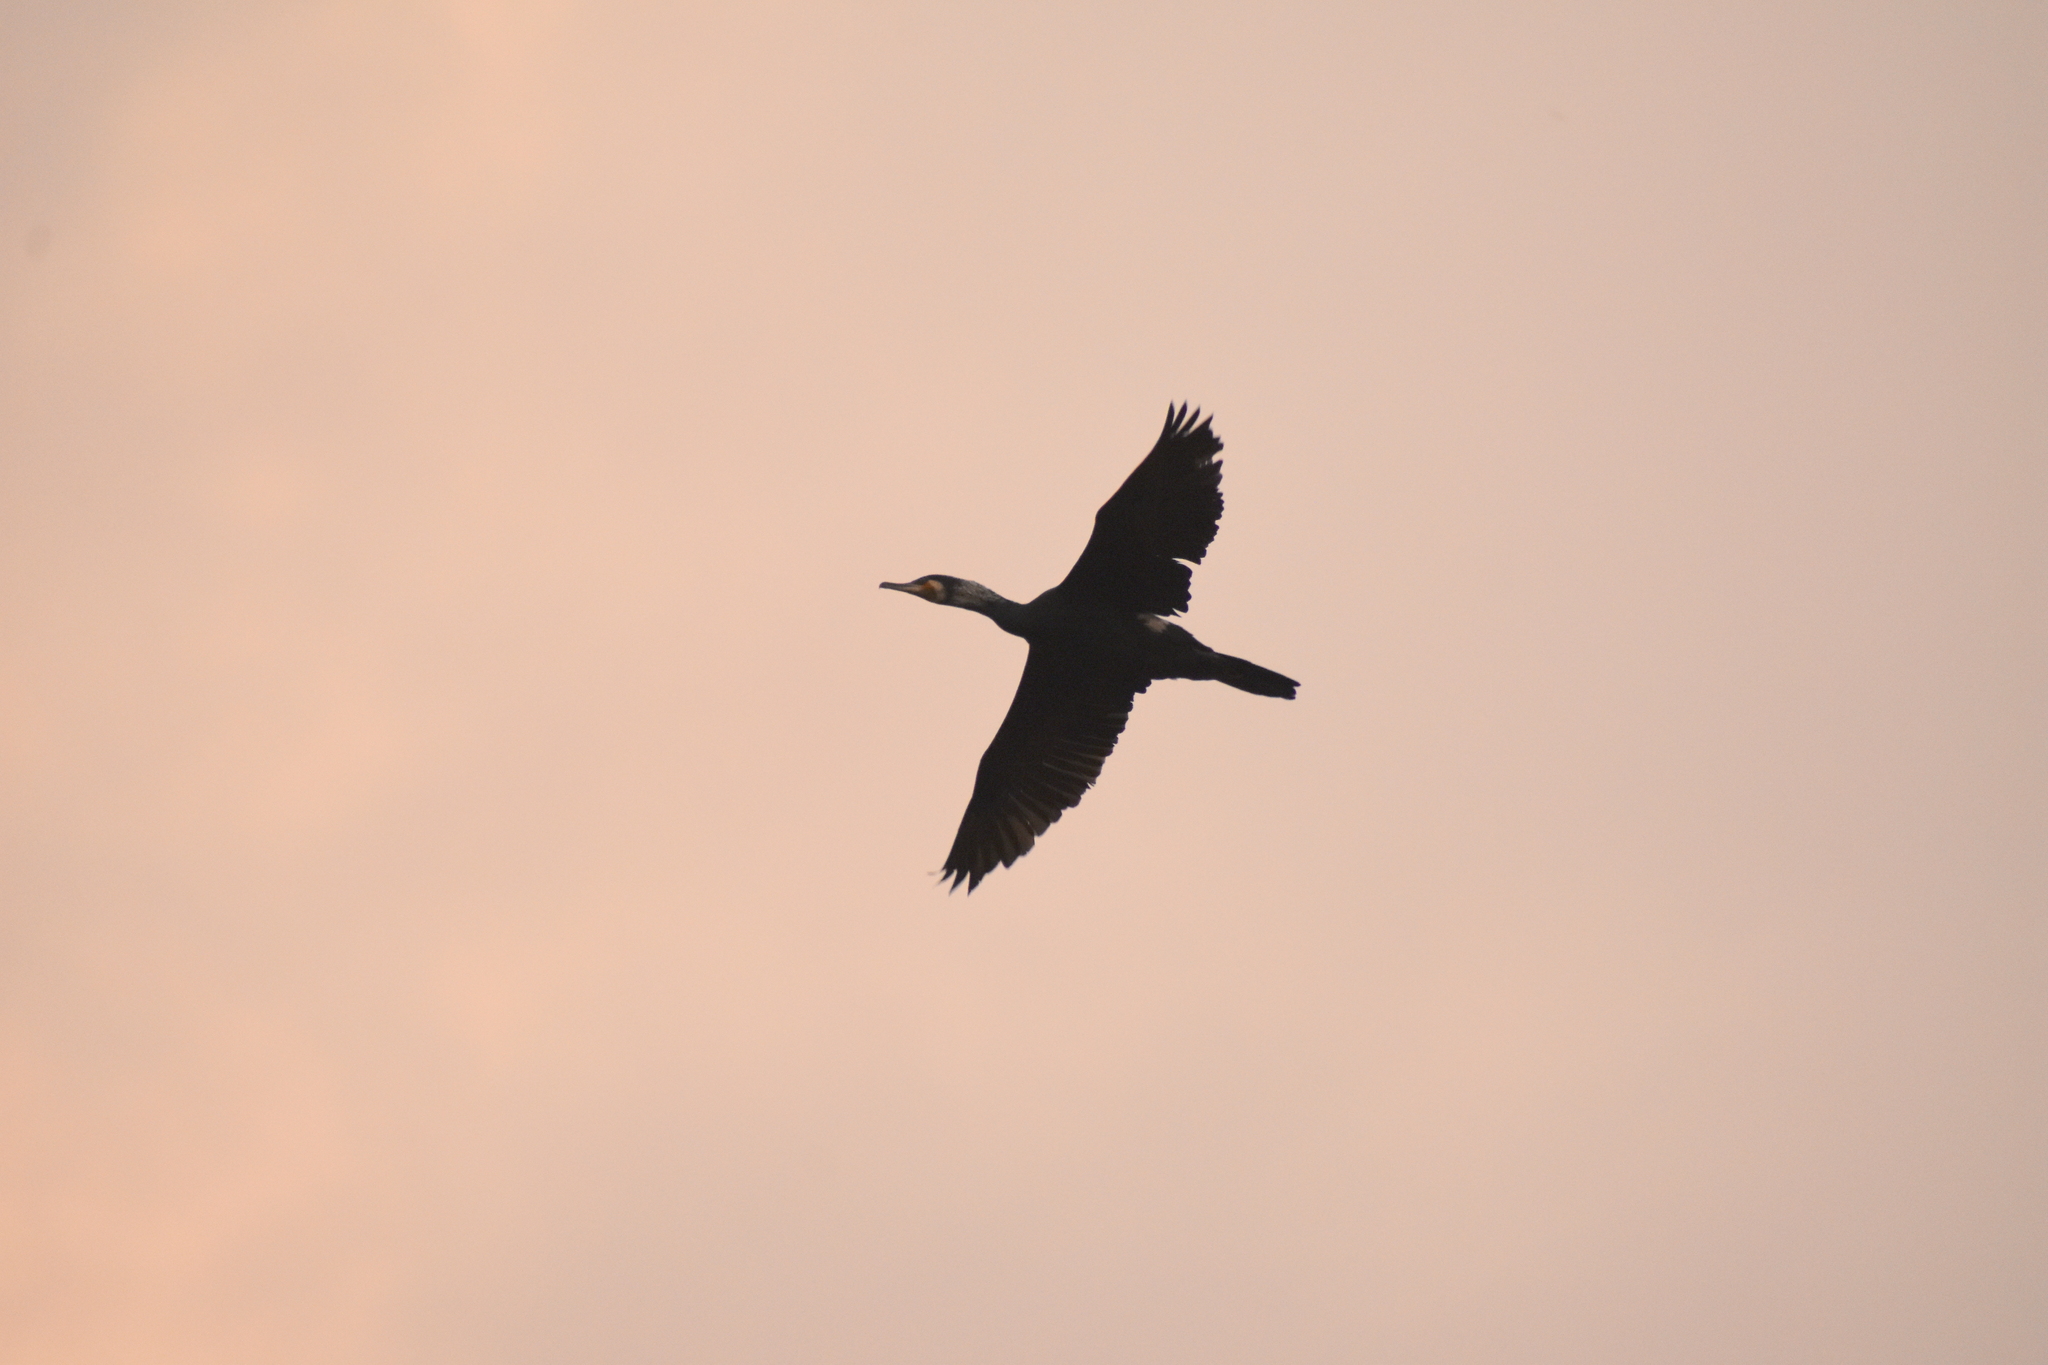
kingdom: Animalia
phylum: Chordata
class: Aves
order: Suliformes
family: Phalacrocoracidae
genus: Phalacrocorax
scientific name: Phalacrocorax carbo
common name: Great cormorant
